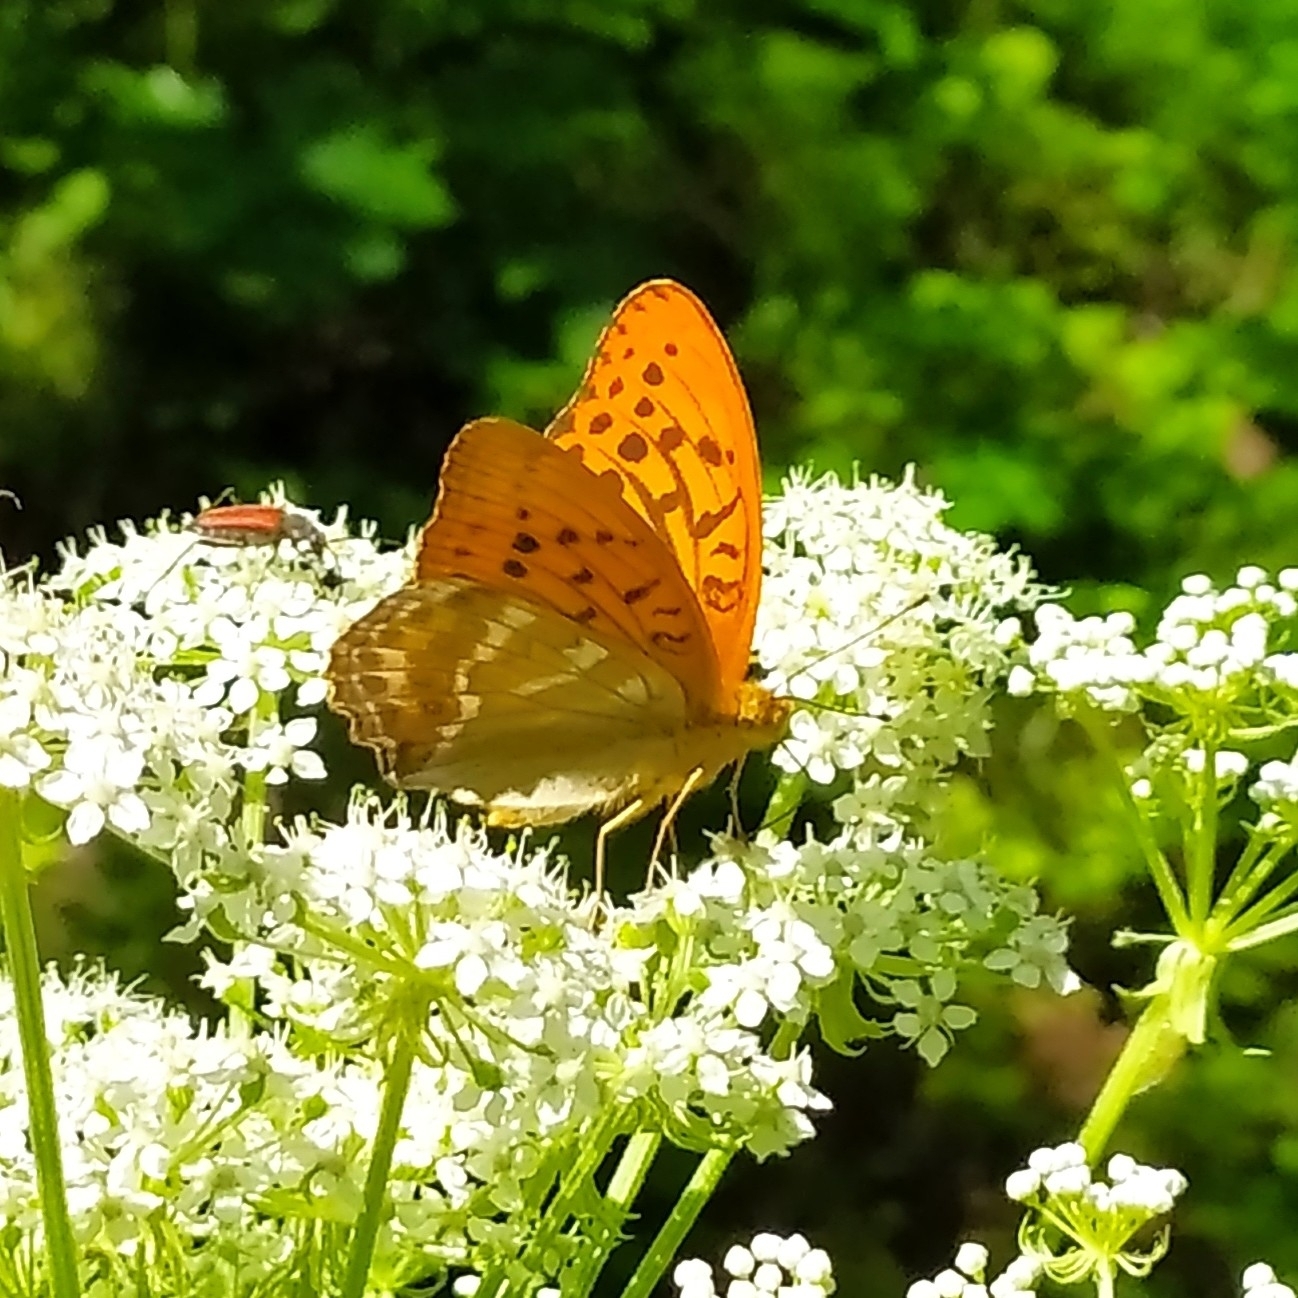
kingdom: Animalia
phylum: Arthropoda
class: Insecta
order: Lepidoptera
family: Nymphalidae
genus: Argynnis
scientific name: Argynnis paphia
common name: Silver-washed fritillary
